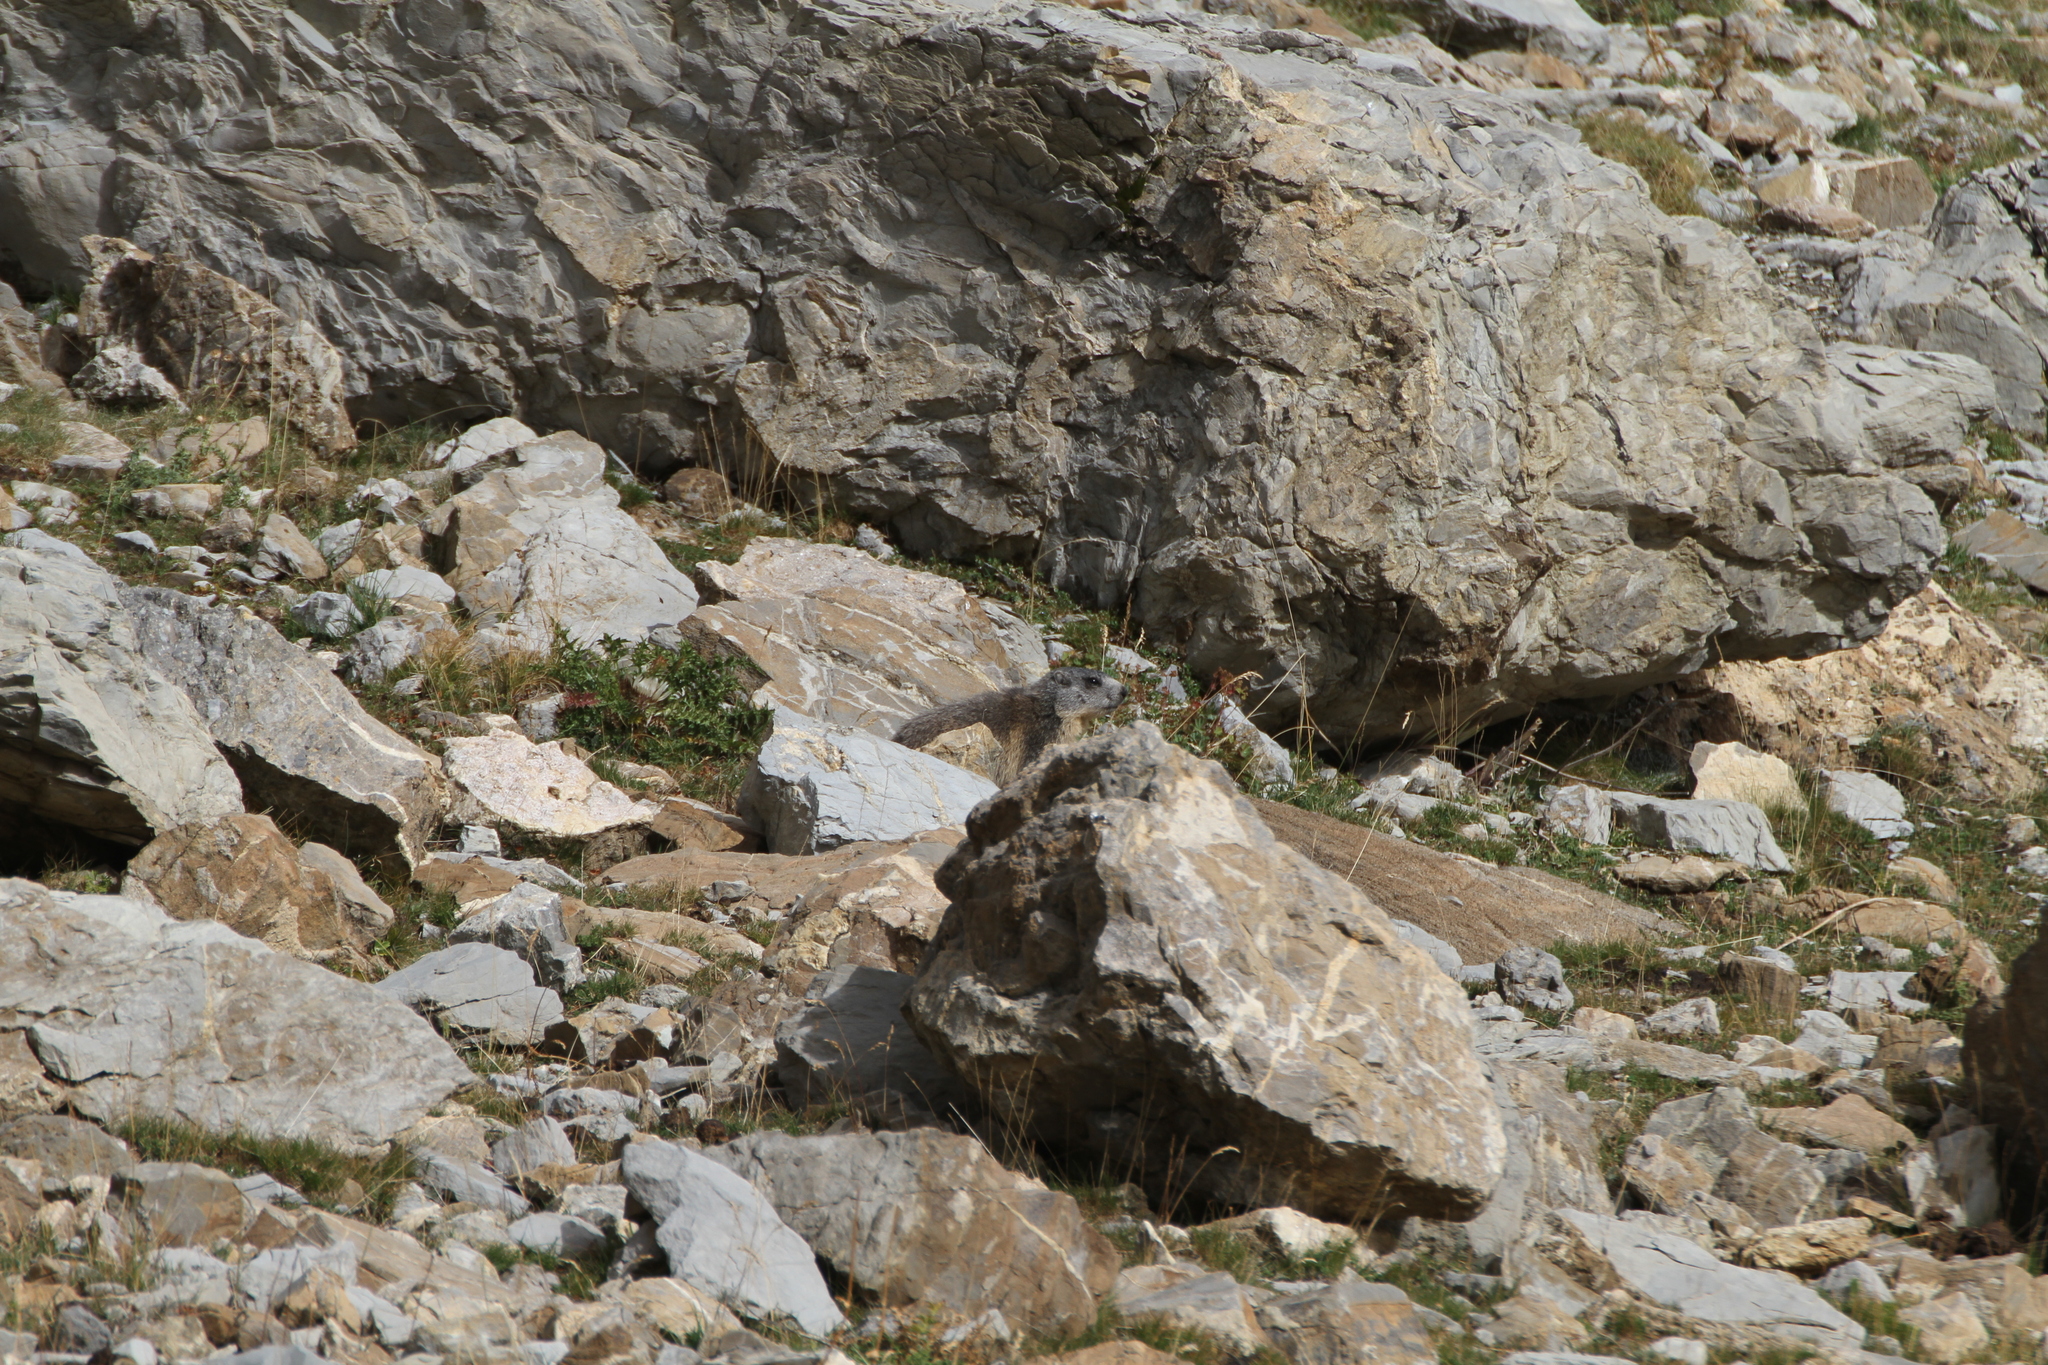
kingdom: Animalia
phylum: Chordata
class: Mammalia
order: Rodentia
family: Sciuridae
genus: Marmota
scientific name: Marmota marmota
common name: Alpine marmot
